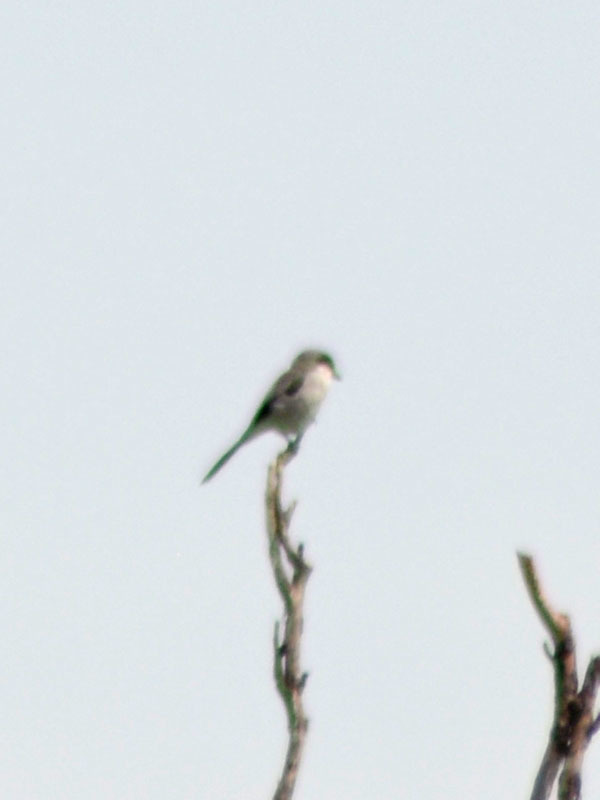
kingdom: Animalia
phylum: Chordata
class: Aves
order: Passeriformes
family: Laniidae
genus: Lanius
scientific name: Lanius ludovicianus
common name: Loggerhead shrike
